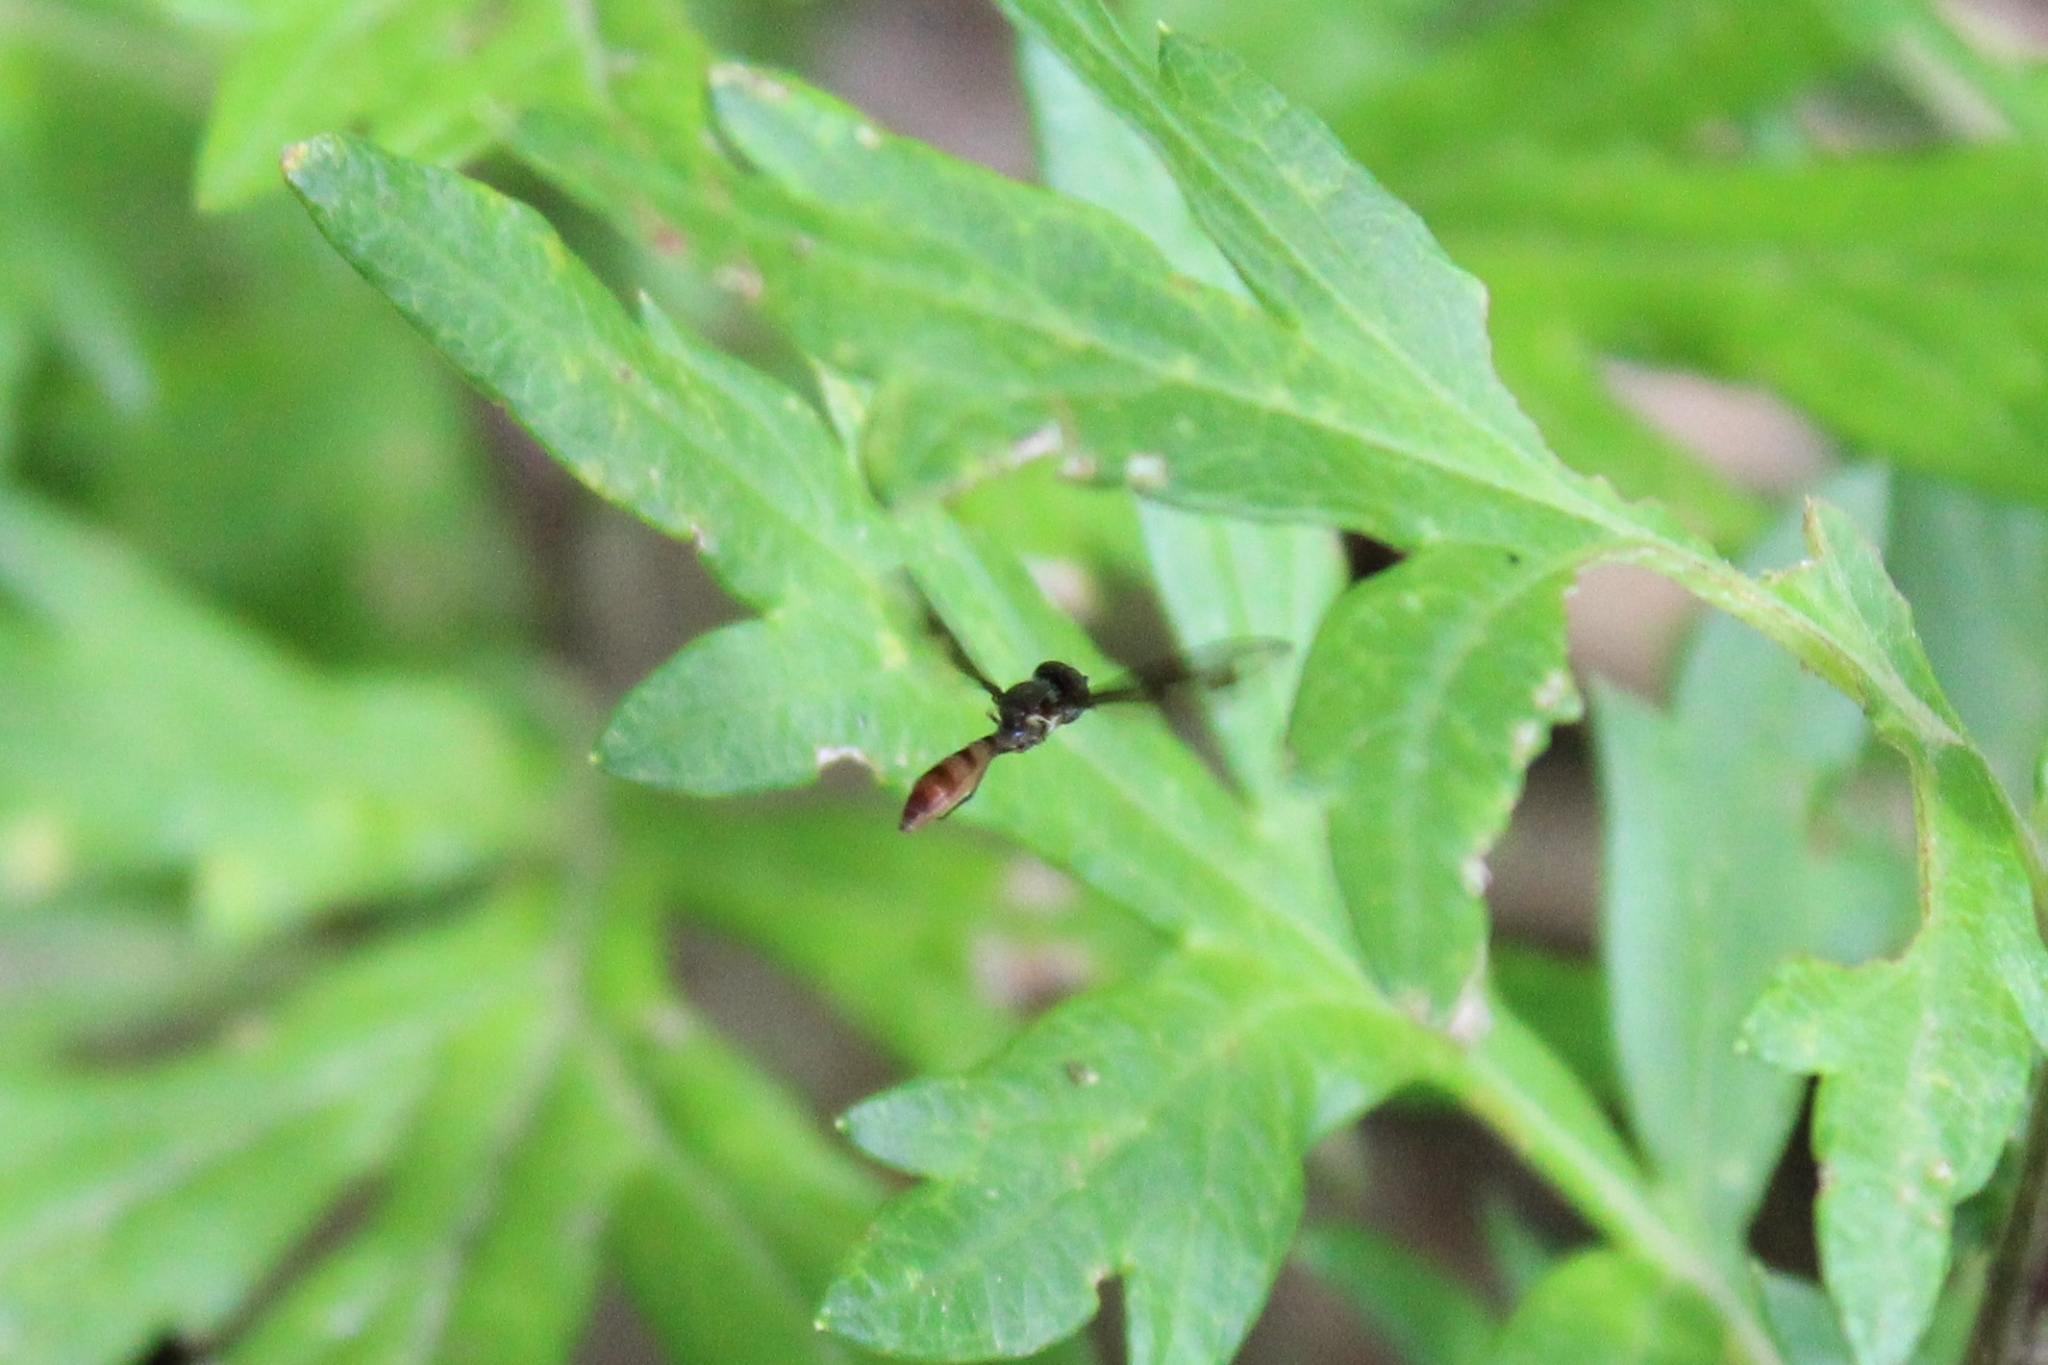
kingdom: Animalia
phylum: Arthropoda
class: Insecta
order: Diptera
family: Syrphidae
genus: Ocyptamus
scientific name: Ocyptamus fuscipennis
